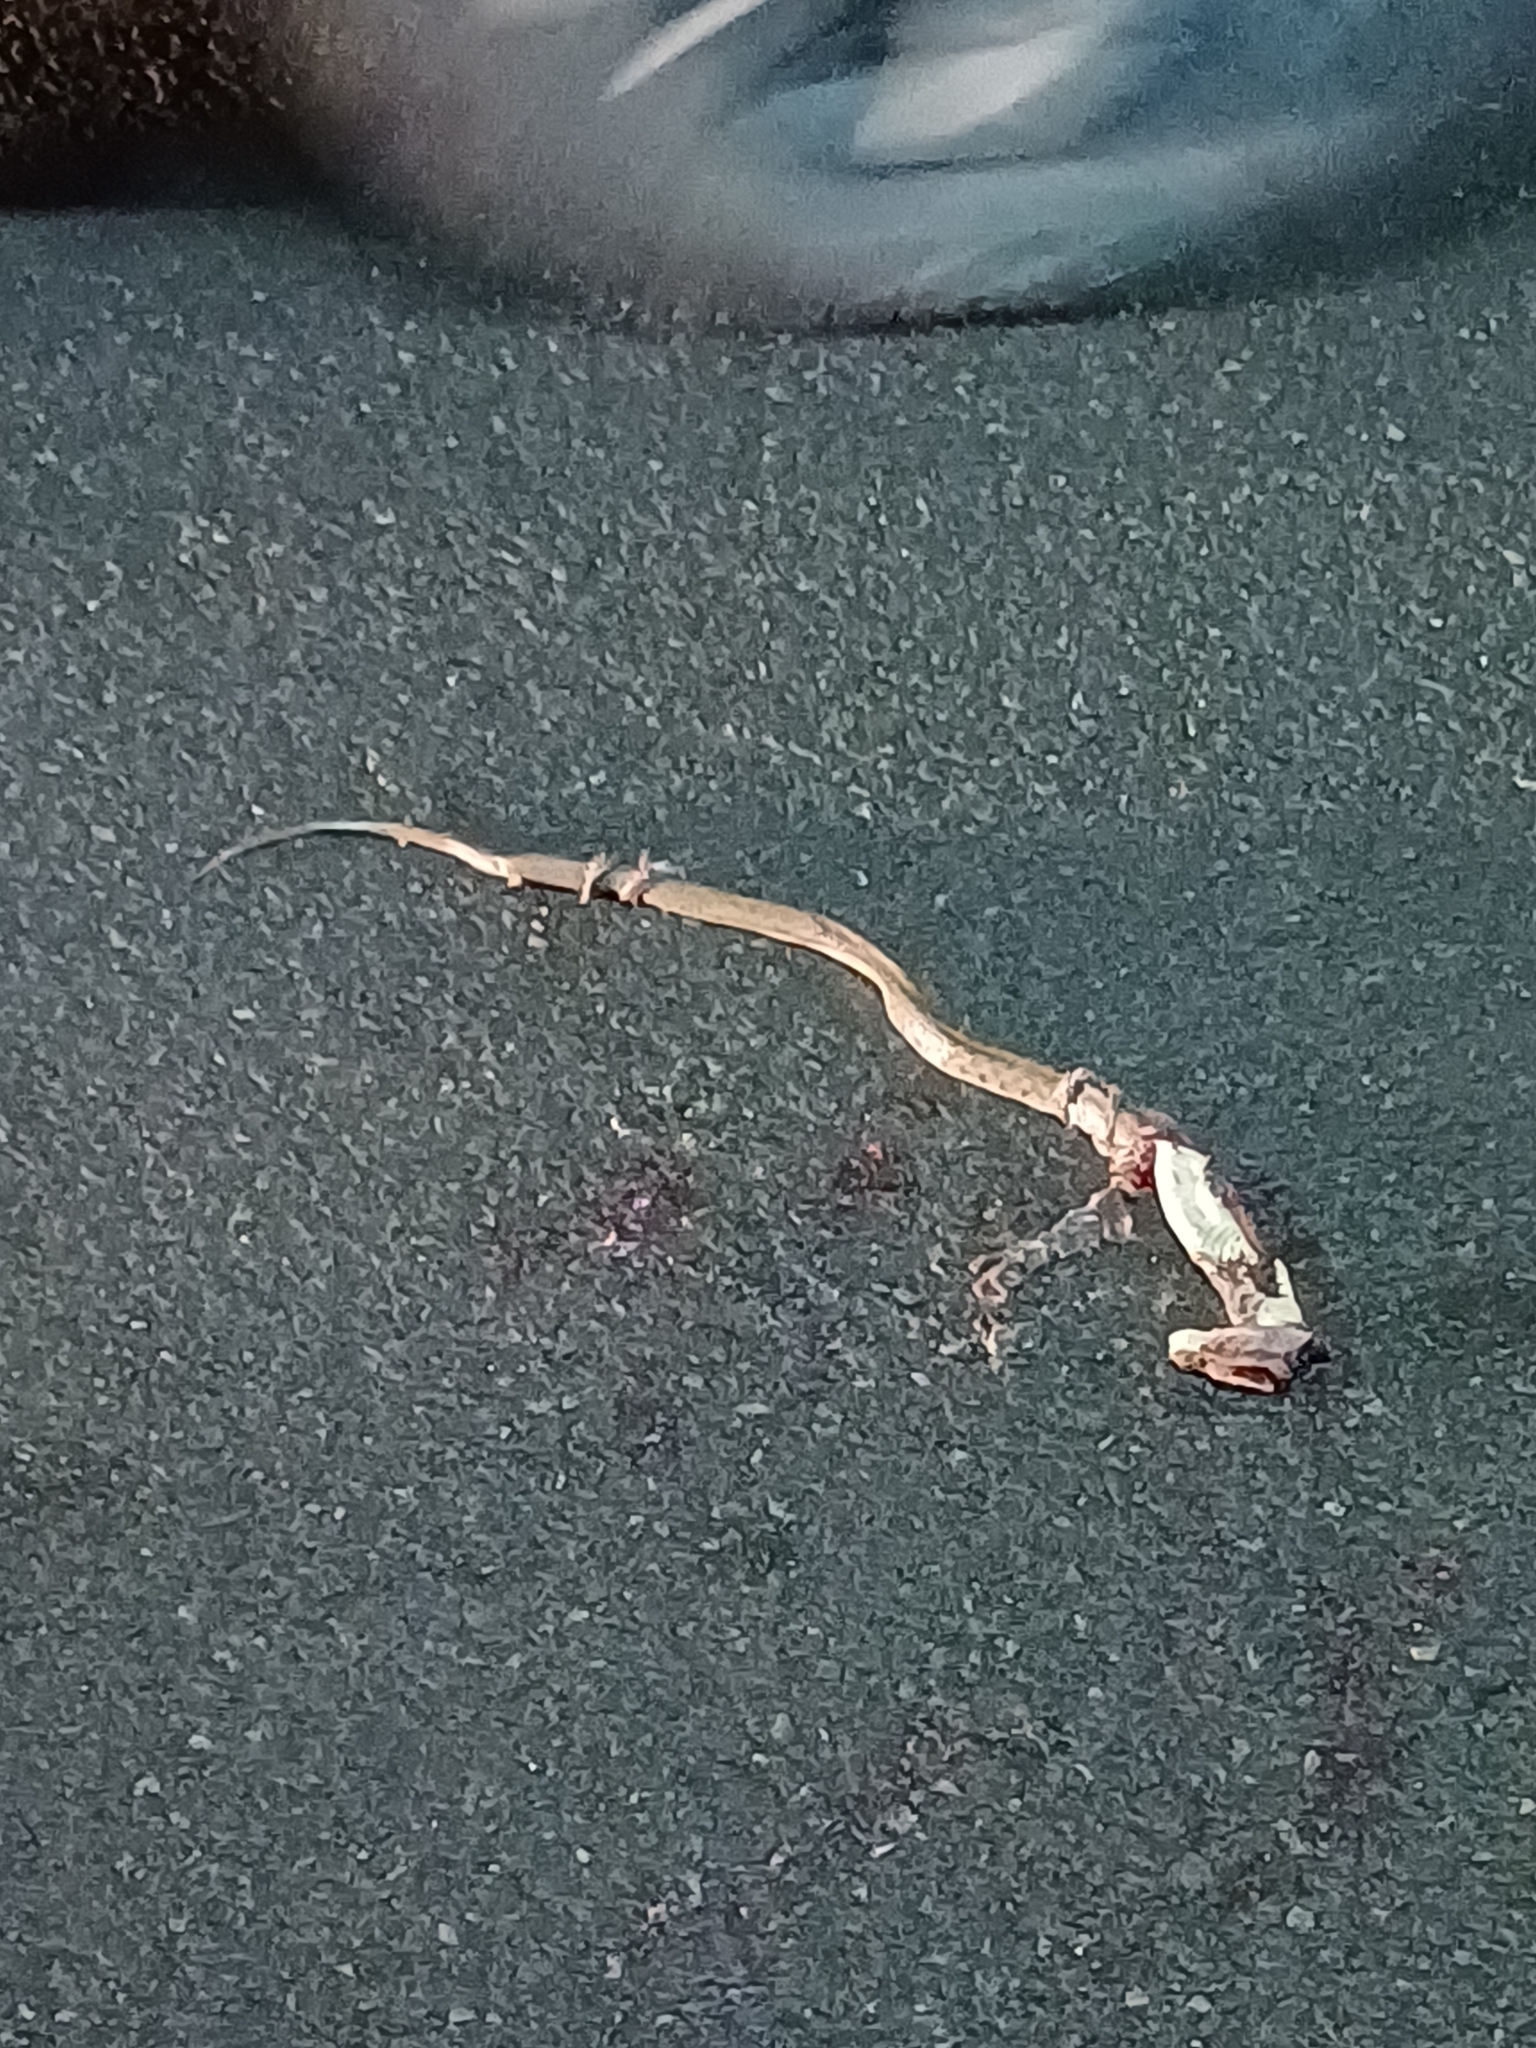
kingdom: Animalia
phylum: Chordata
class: Squamata
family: Colubridae
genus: Fowlea
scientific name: Fowlea piscator
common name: Asiatic water snake
